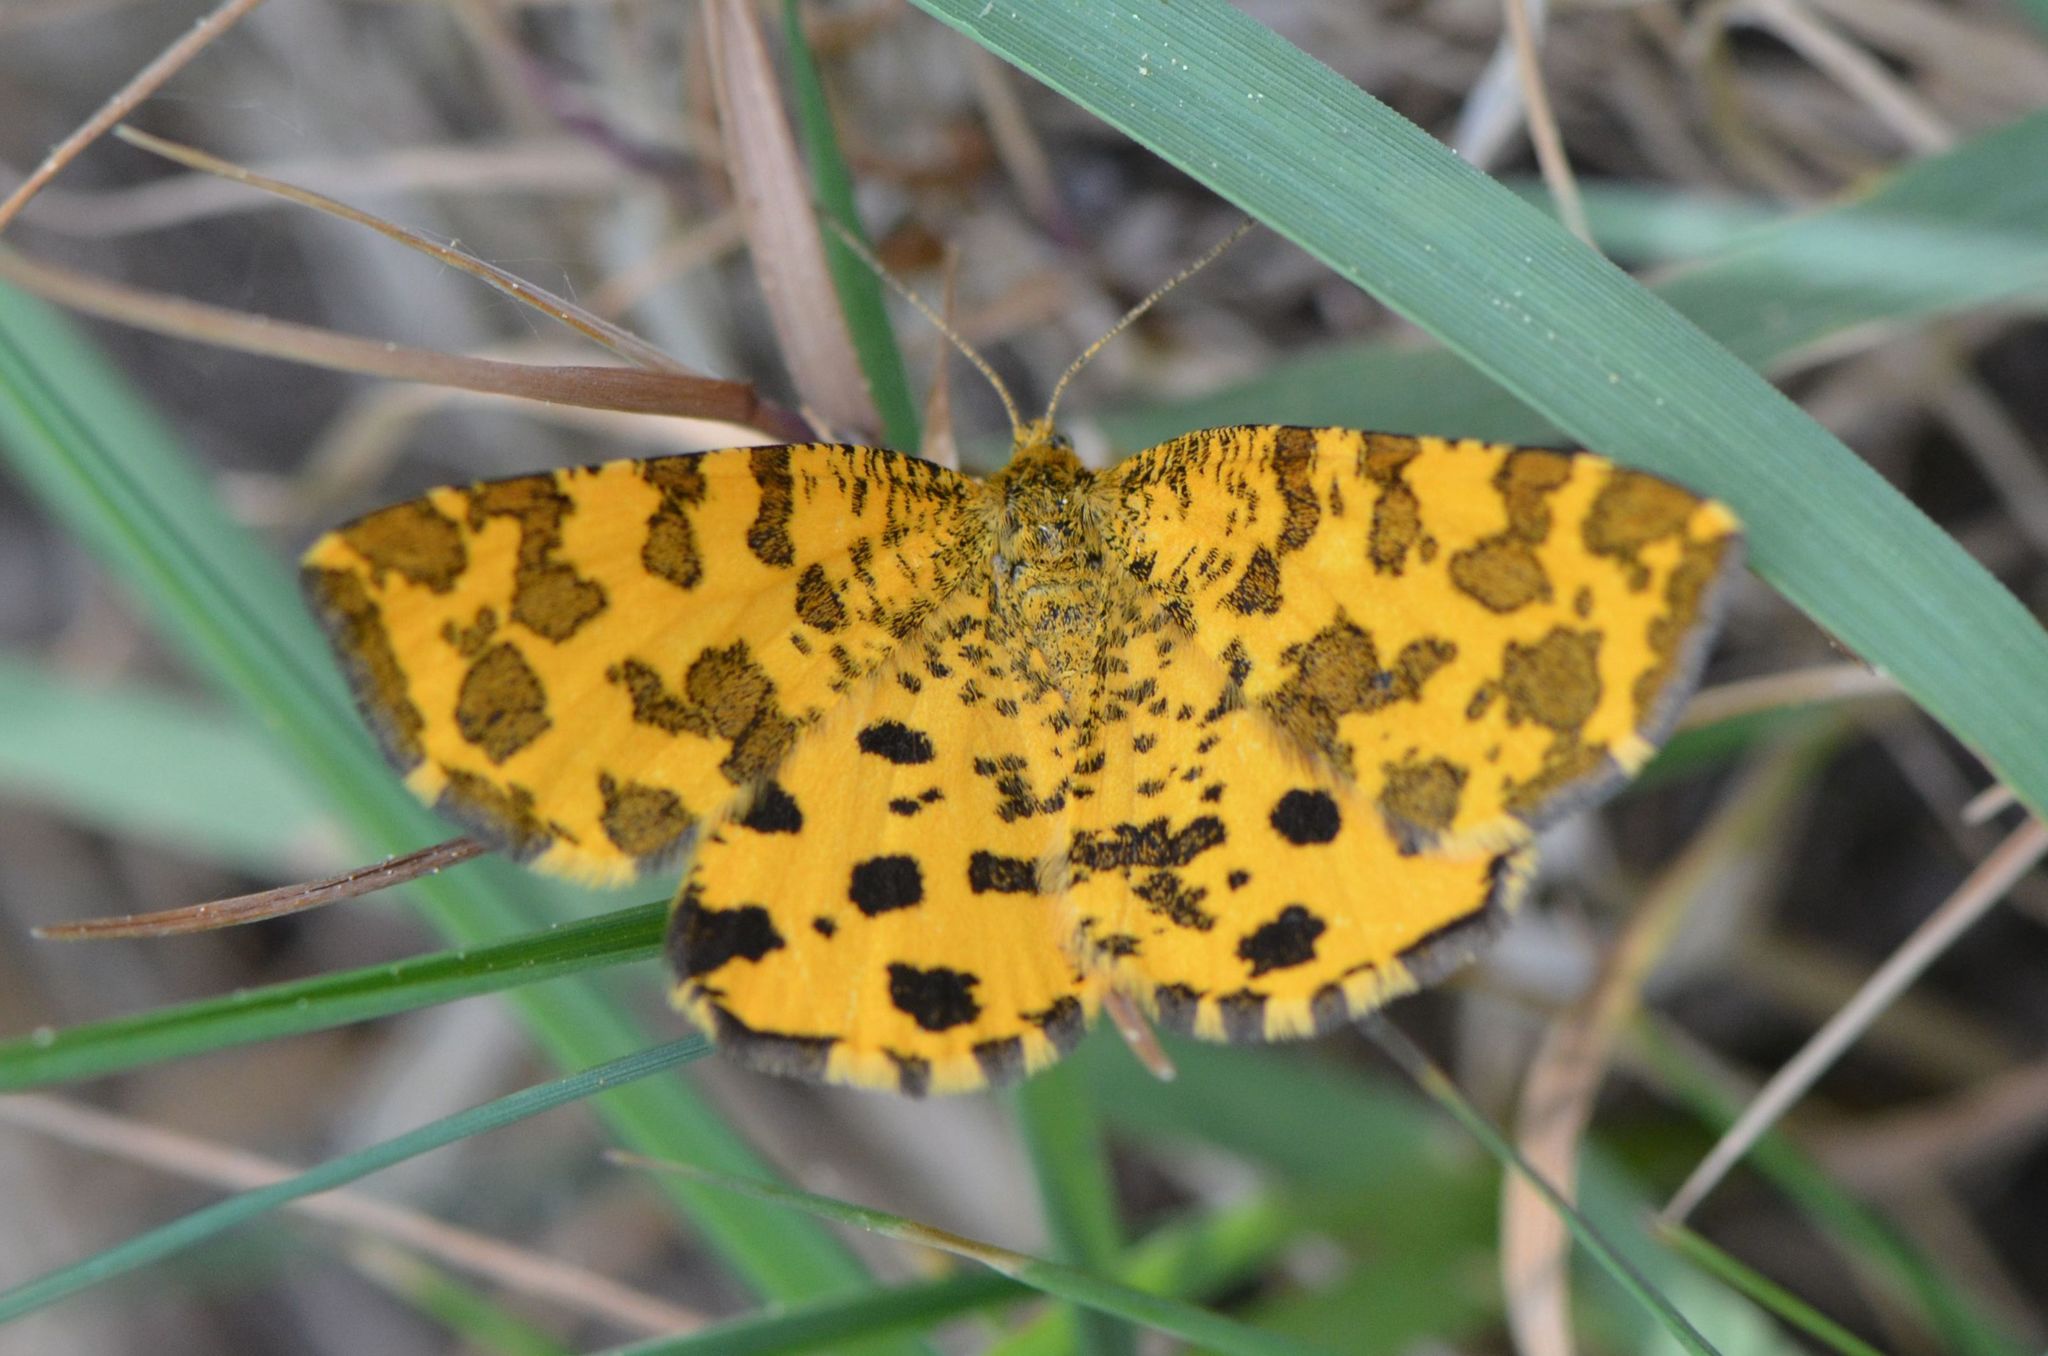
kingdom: Animalia
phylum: Arthropoda
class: Insecta
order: Lepidoptera
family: Geometridae
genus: Pseudopanthera
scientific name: Pseudopanthera macularia
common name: Speckled yellow
